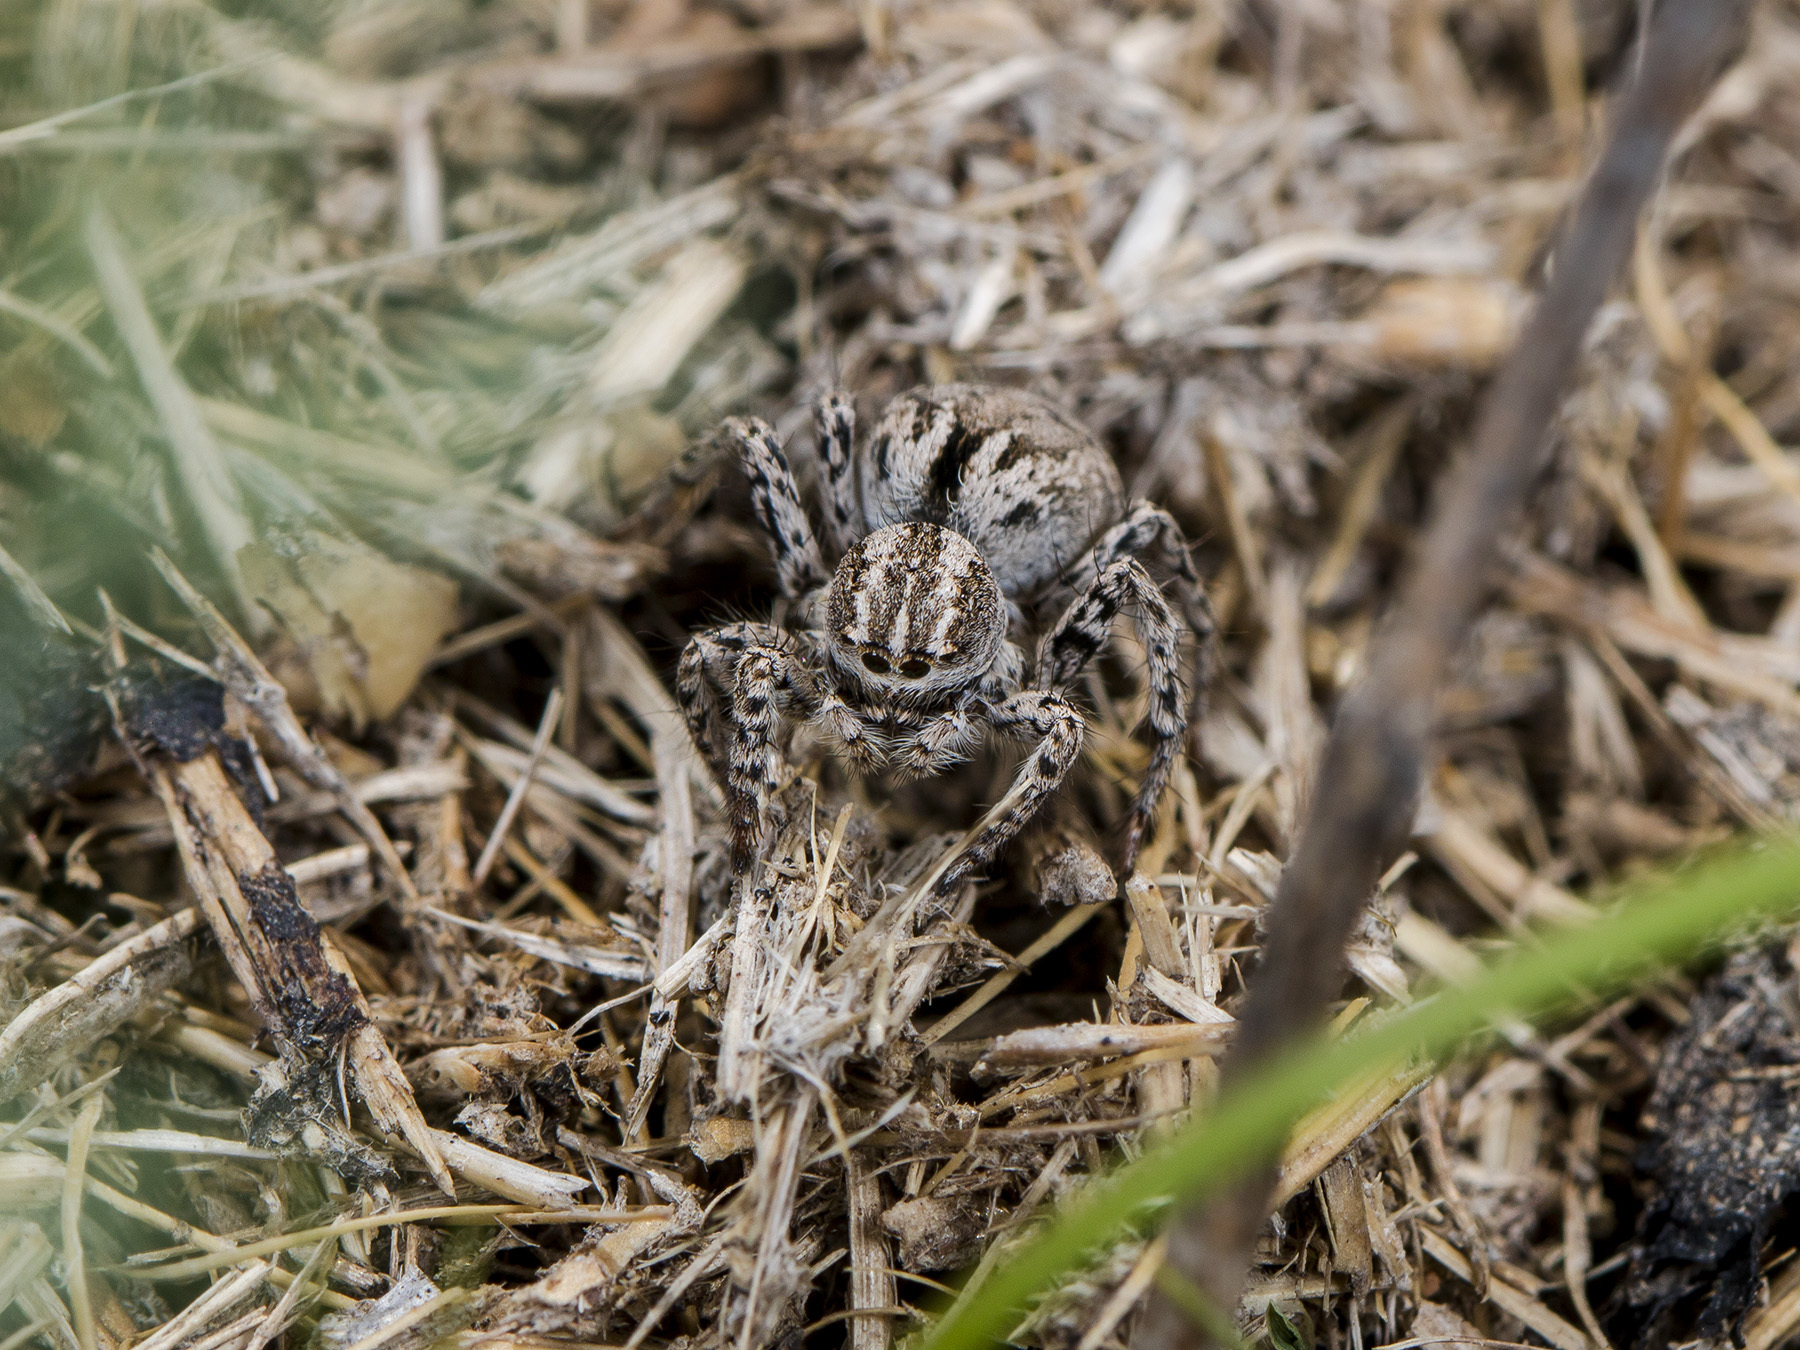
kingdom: Animalia
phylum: Arthropoda
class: Arachnida
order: Araneae
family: Salticidae
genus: Aelurillus
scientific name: Aelurillus m-nigrum
